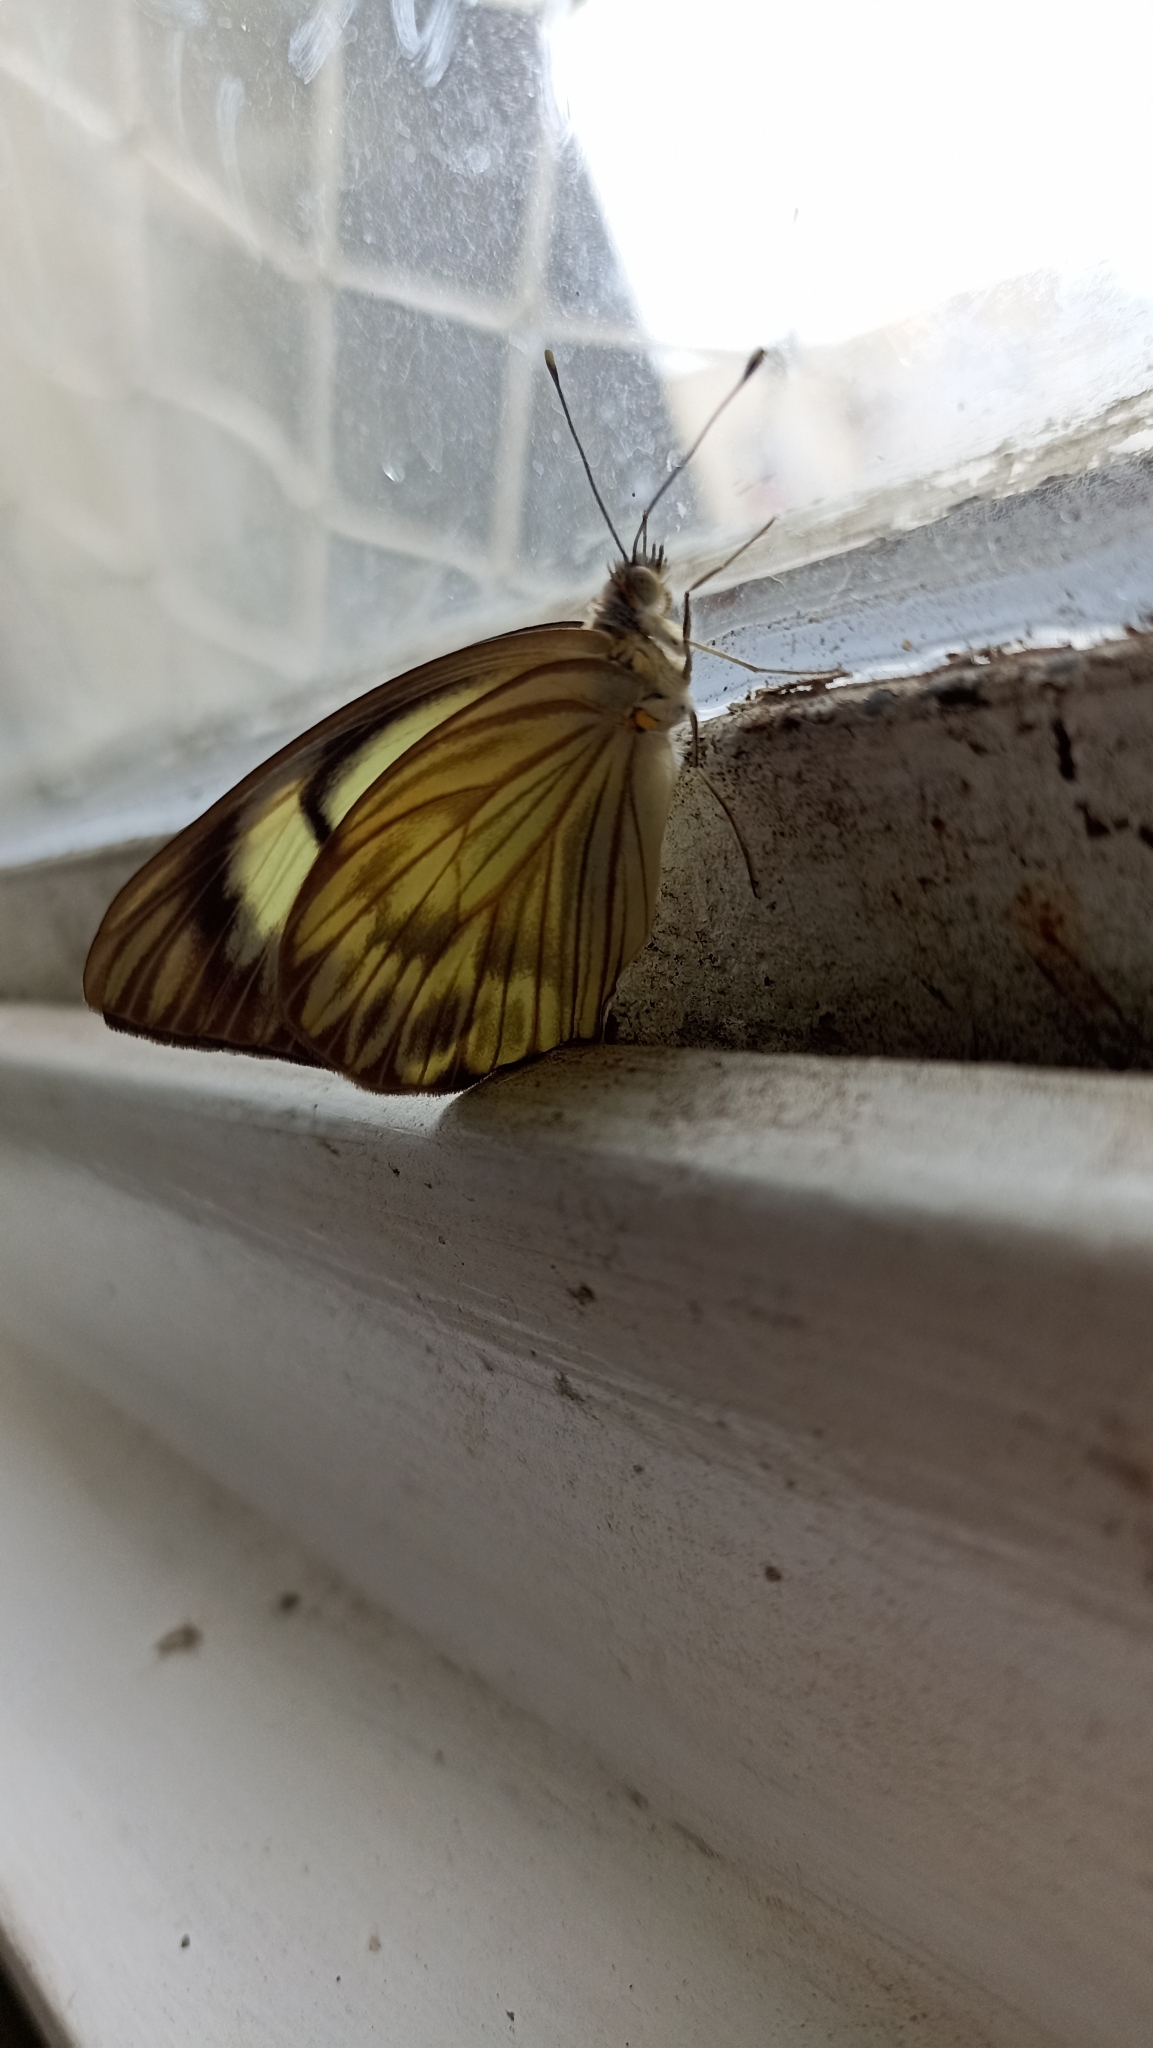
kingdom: Animalia
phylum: Arthropoda
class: Insecta
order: Lepidoptera
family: Pieridae
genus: Ascia
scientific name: Ascia monuste
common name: Great southern white
